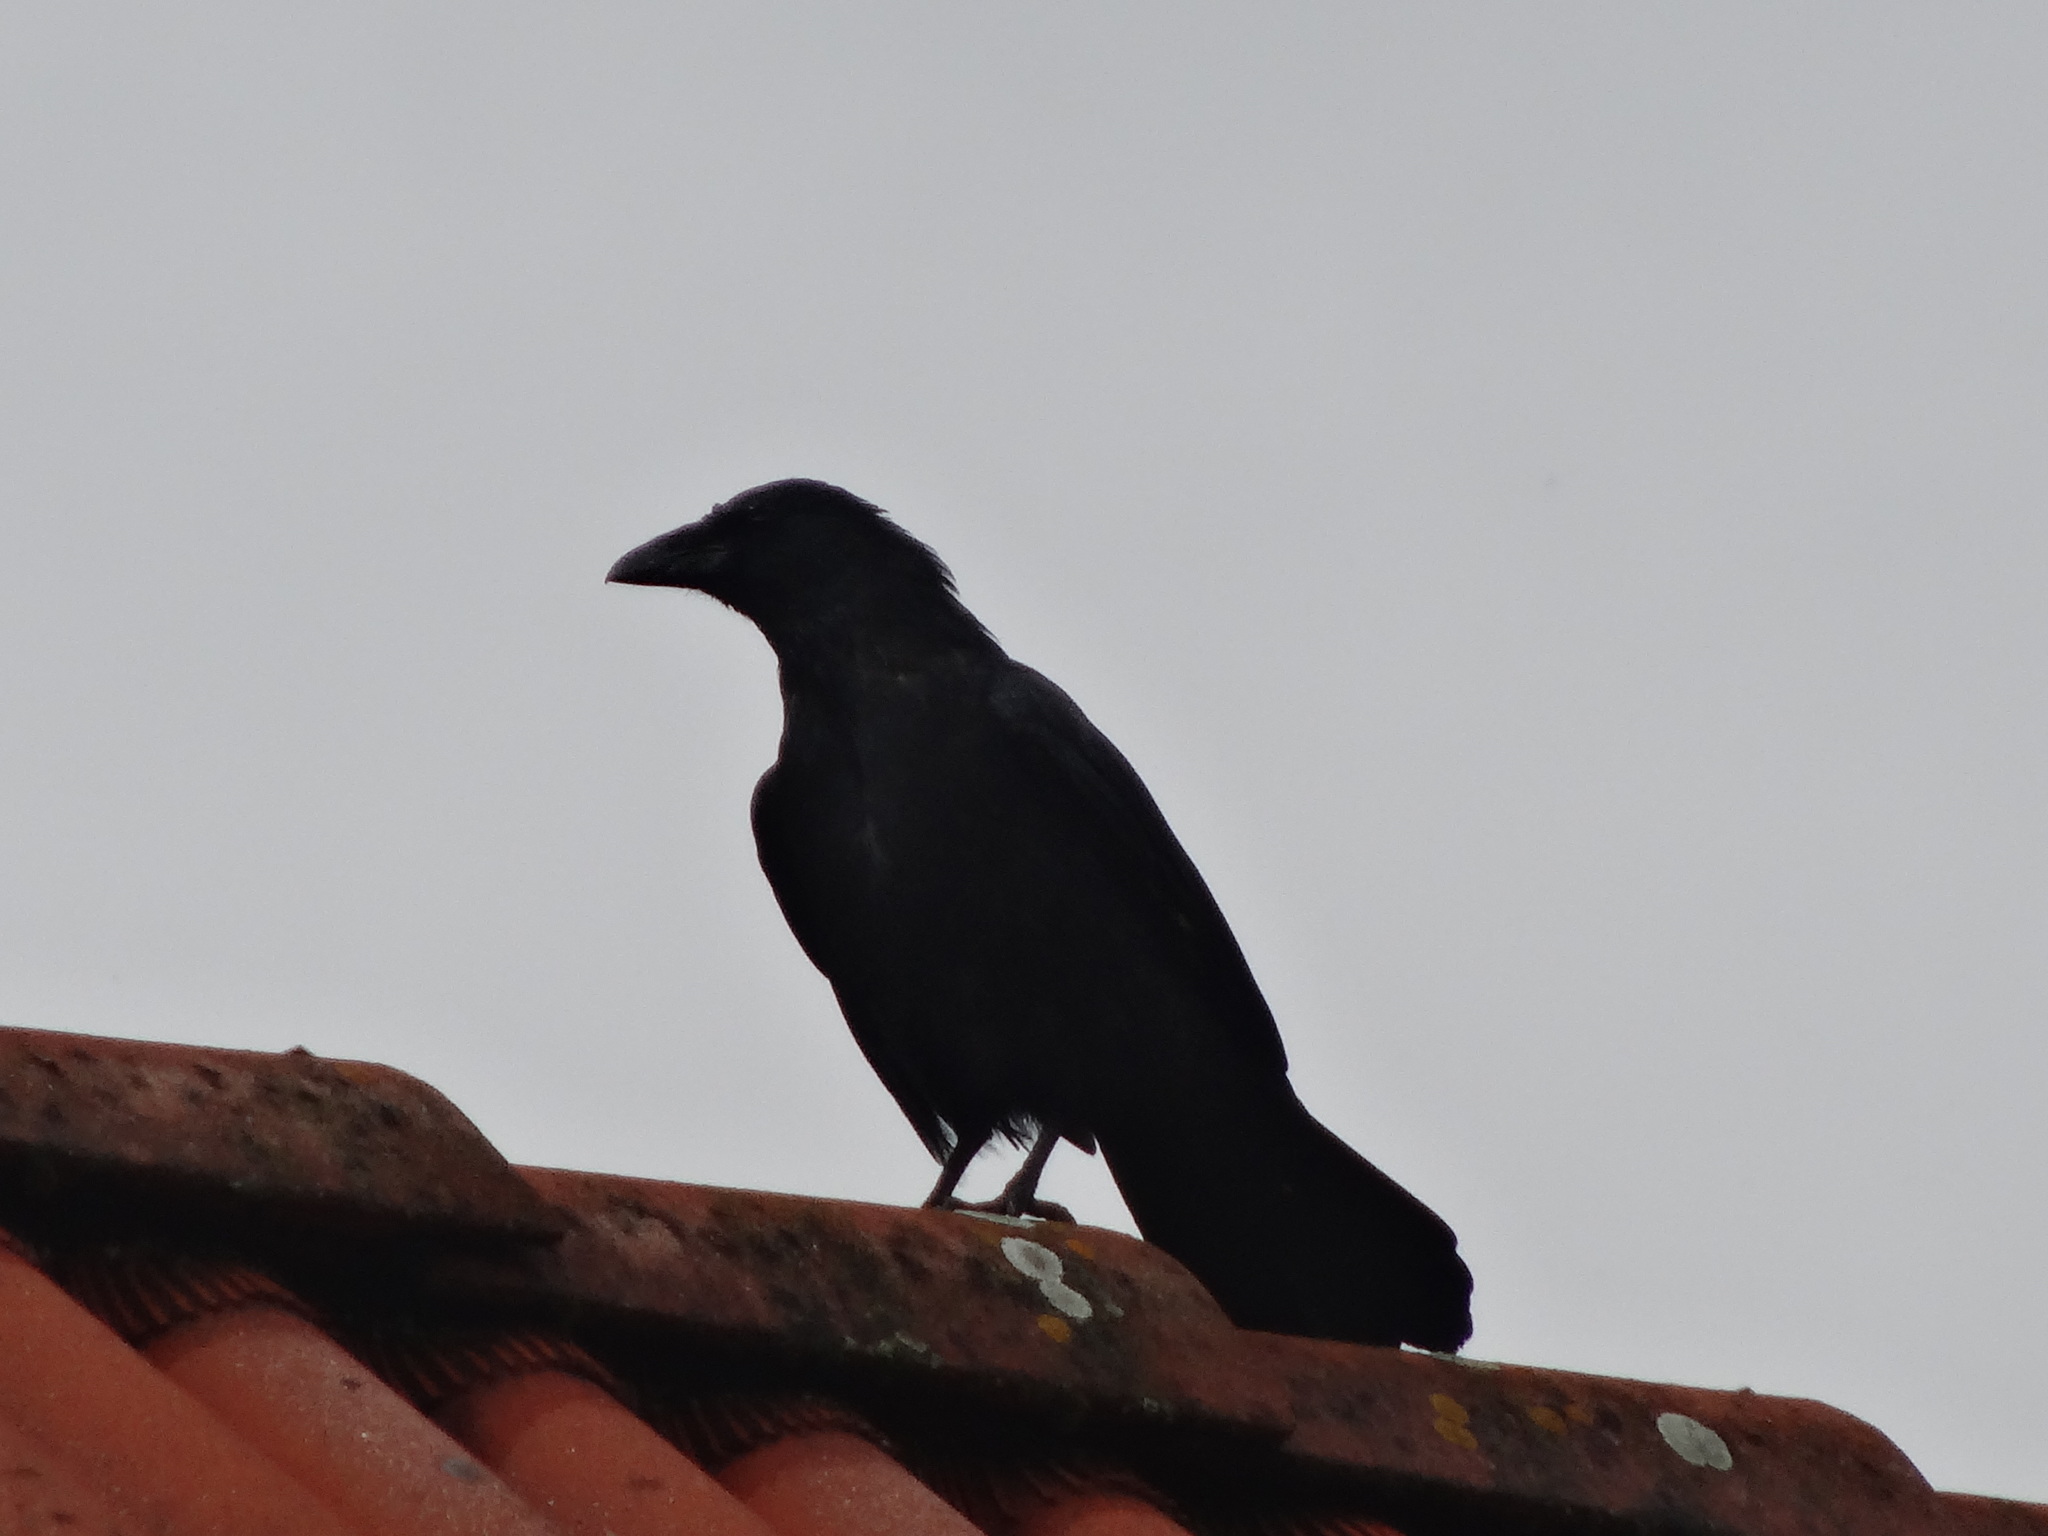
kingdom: Animalia
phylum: Chordata
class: Aves
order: Passeriformes
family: Corvidae
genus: Corvus
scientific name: Corvus corone
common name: Carrion crow
